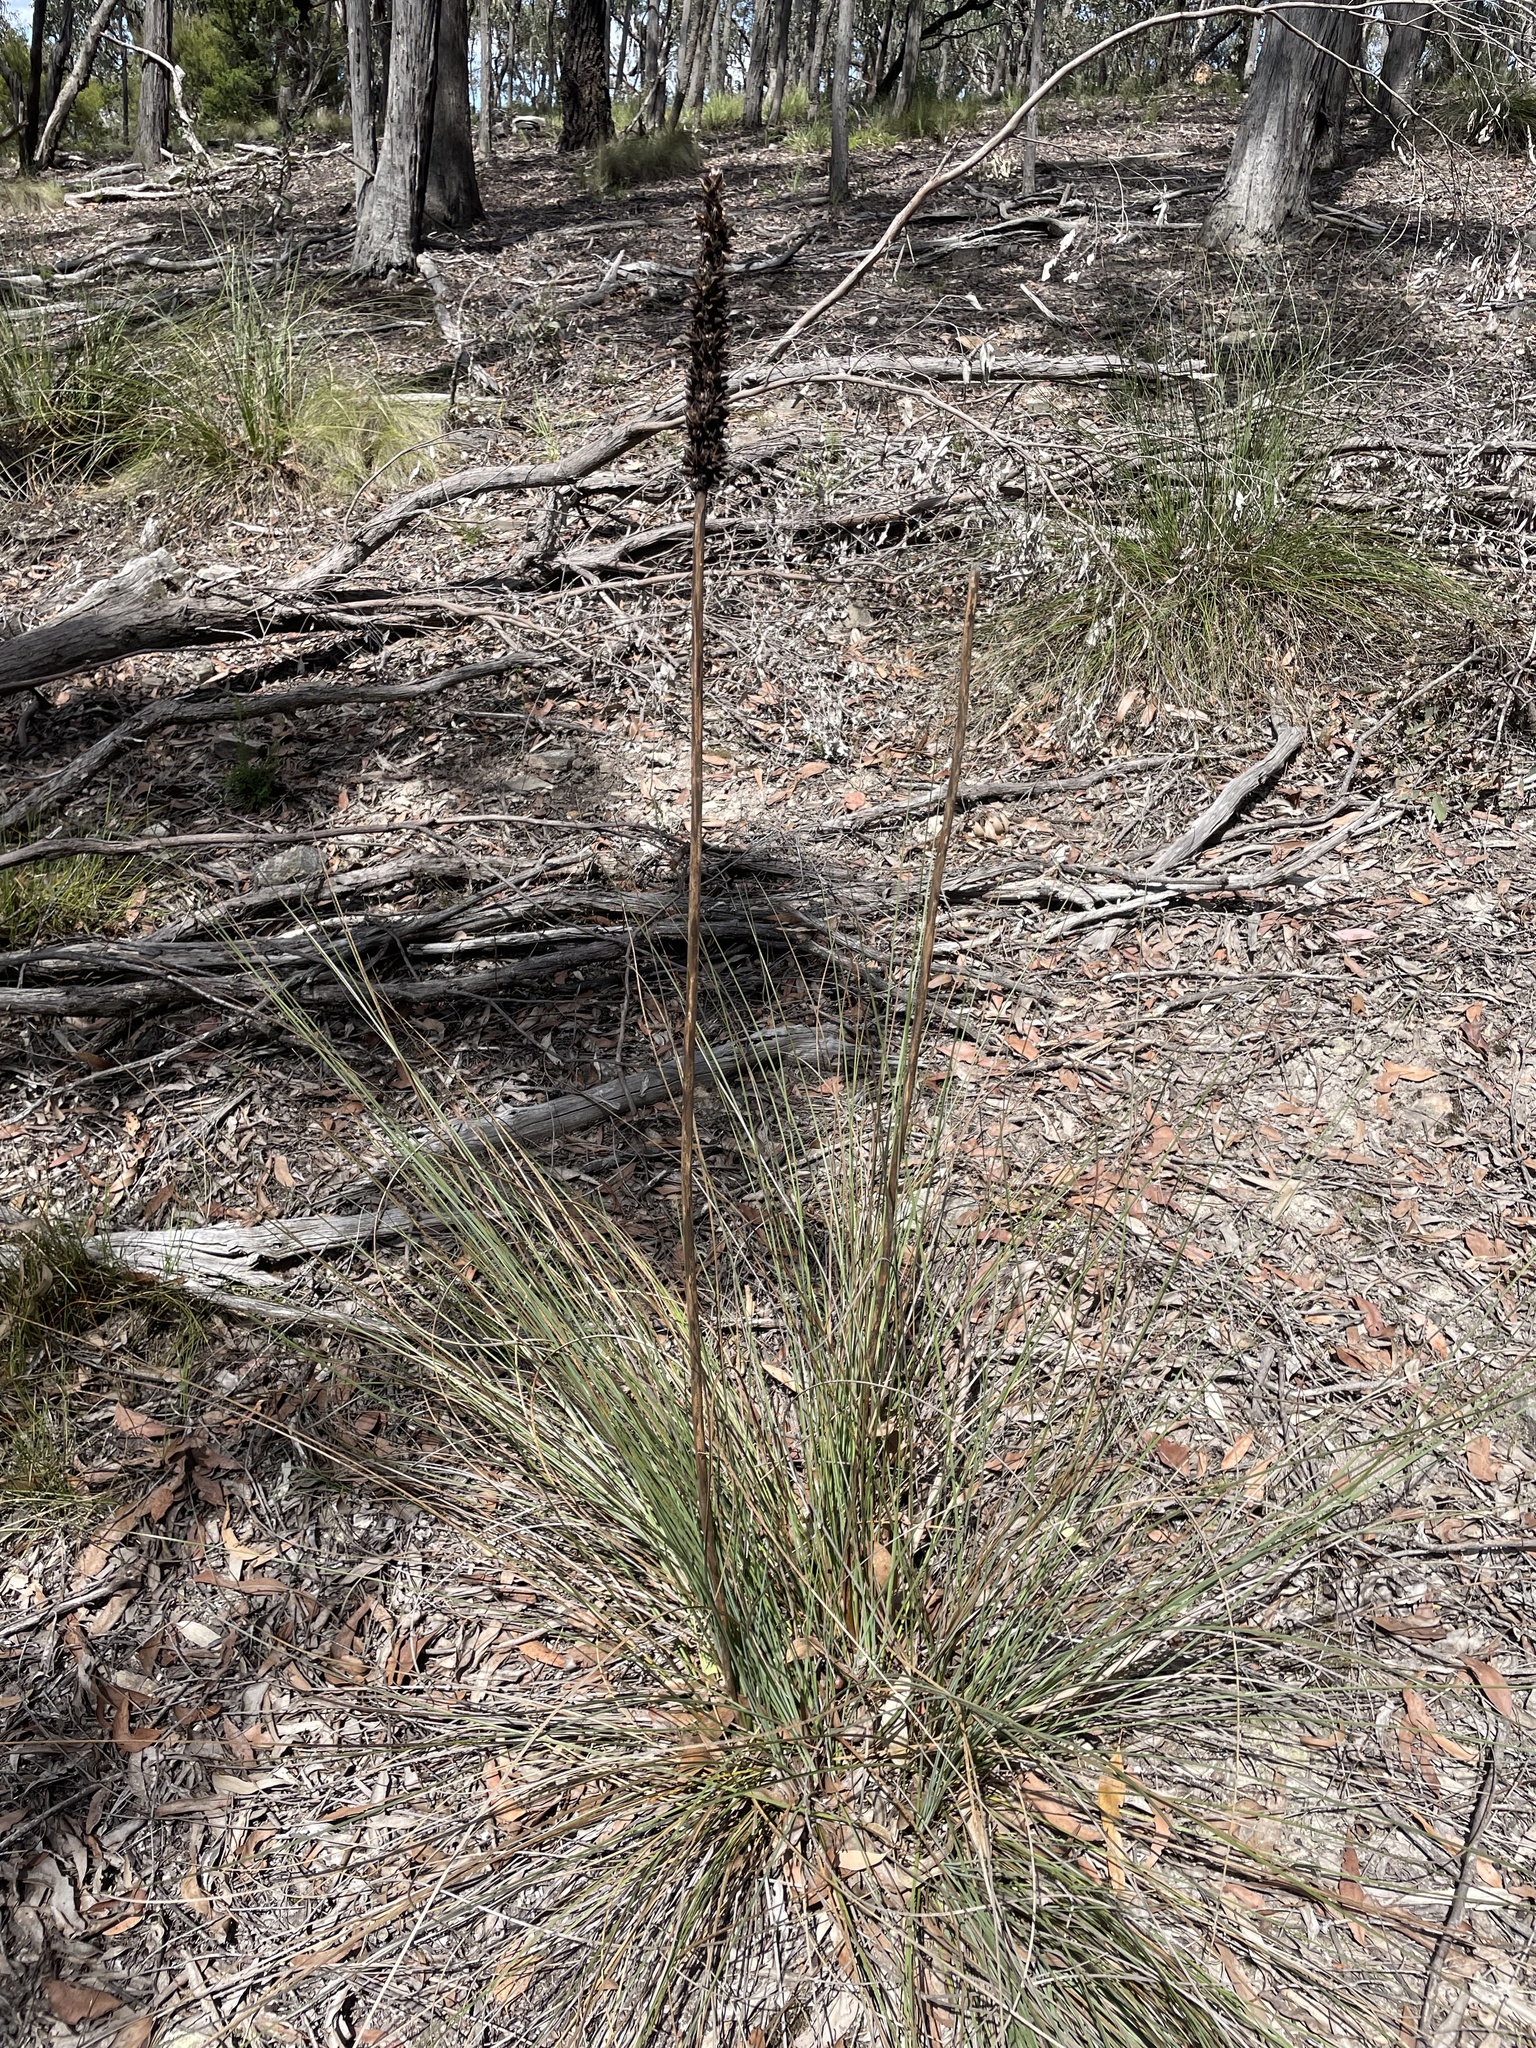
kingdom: Plantae
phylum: Tracheophyta
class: Liliopsida
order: Asparagales
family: Asphodelaceae
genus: Xanthorrhoea
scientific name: Xanthorrhoea minor
